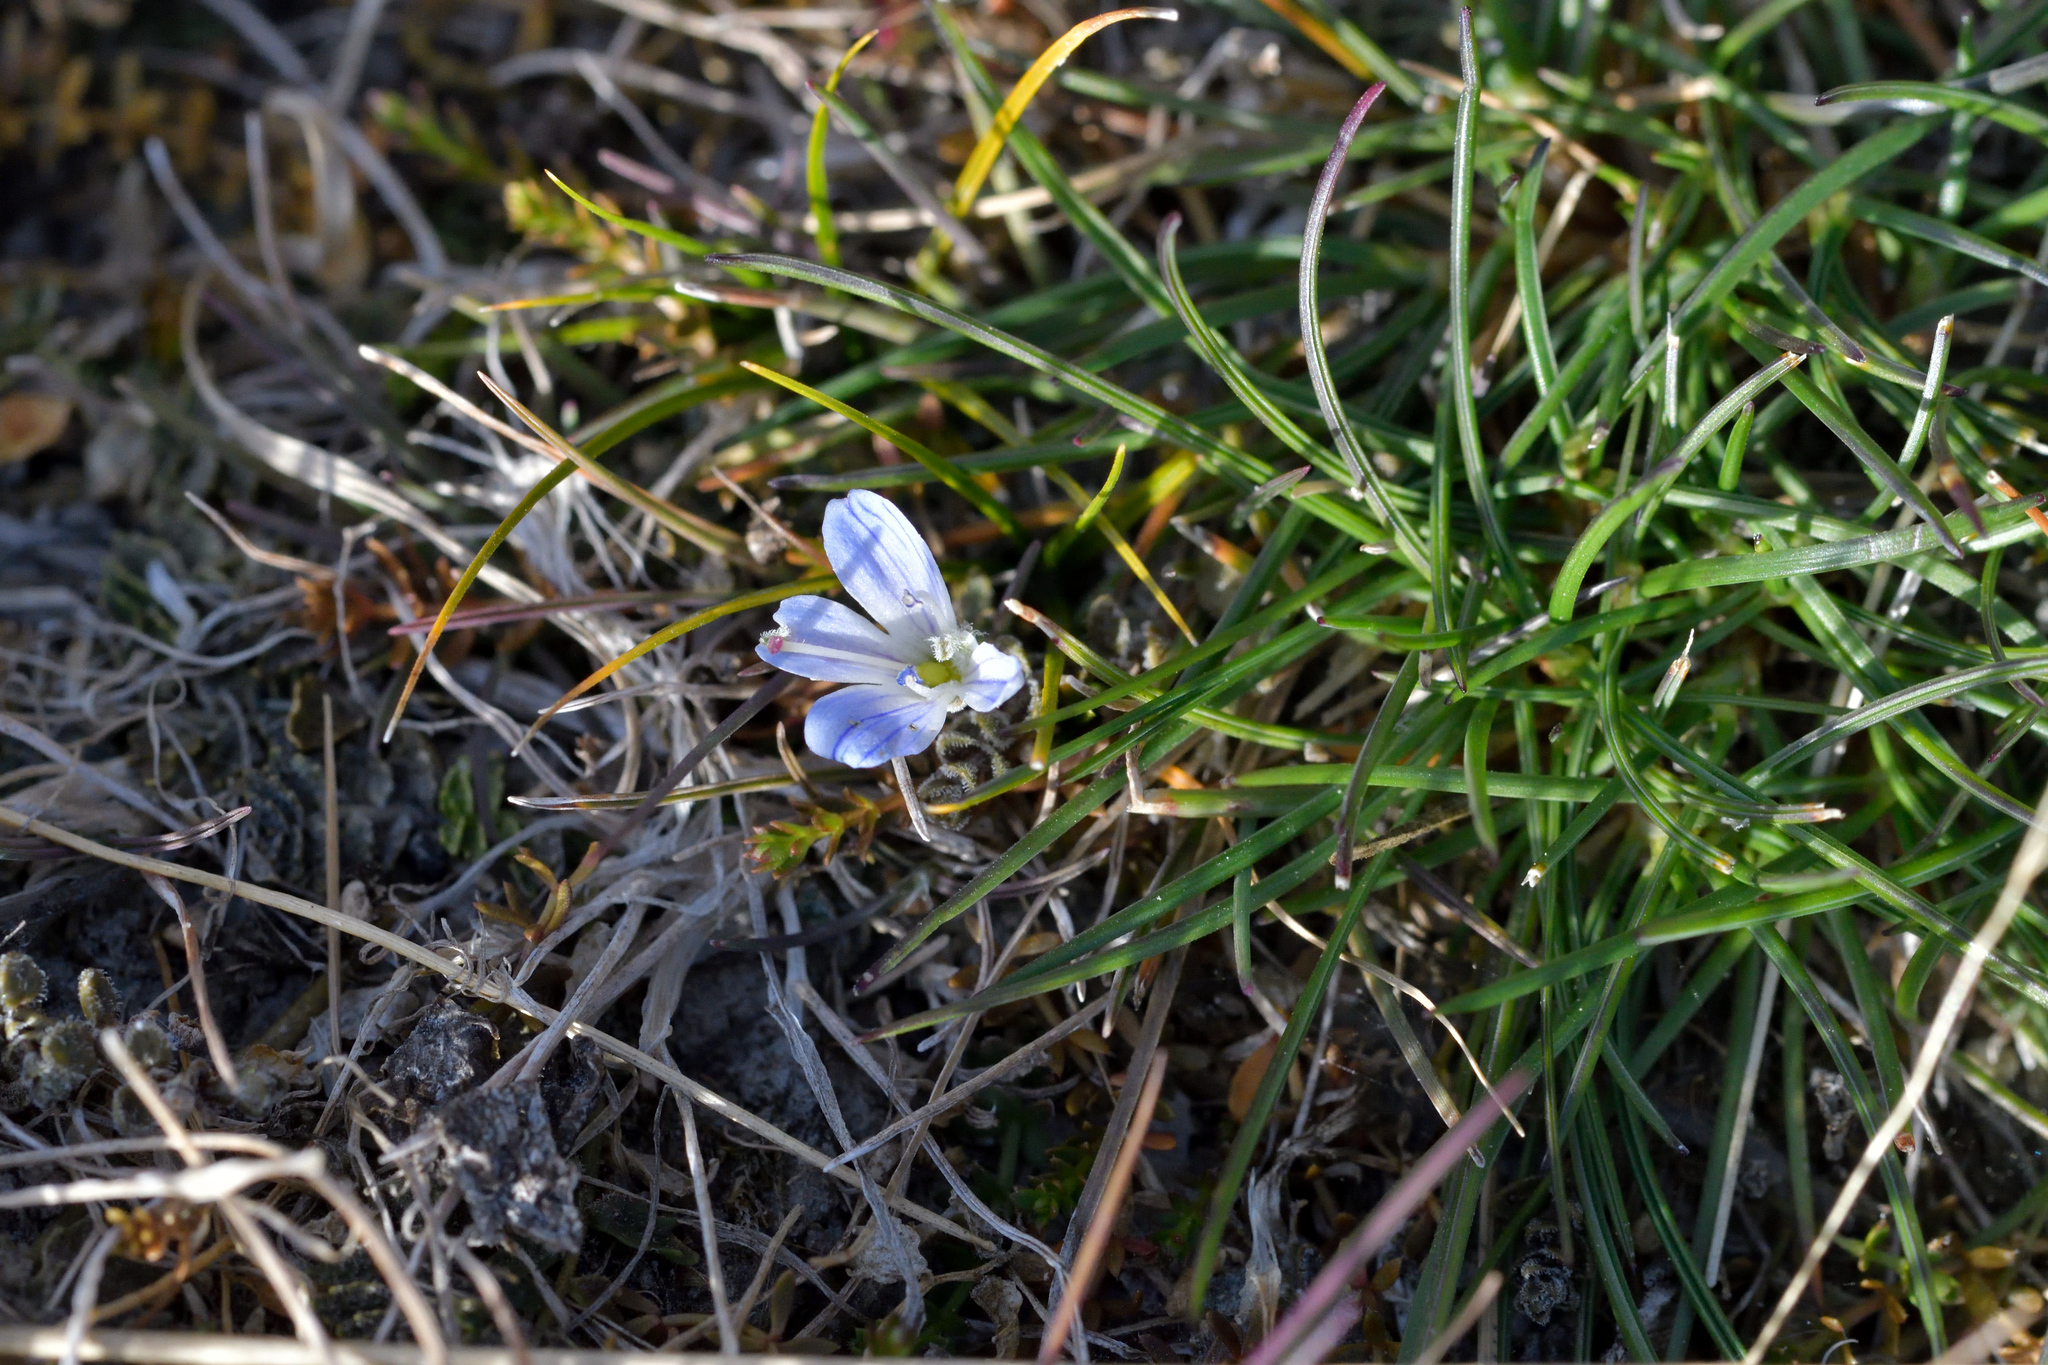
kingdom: Plantae
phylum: Tracheophyta
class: Magnoliopsida
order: Lamiales
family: Plantaginaceae
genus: Veronica
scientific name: Veronica lilliputiana
